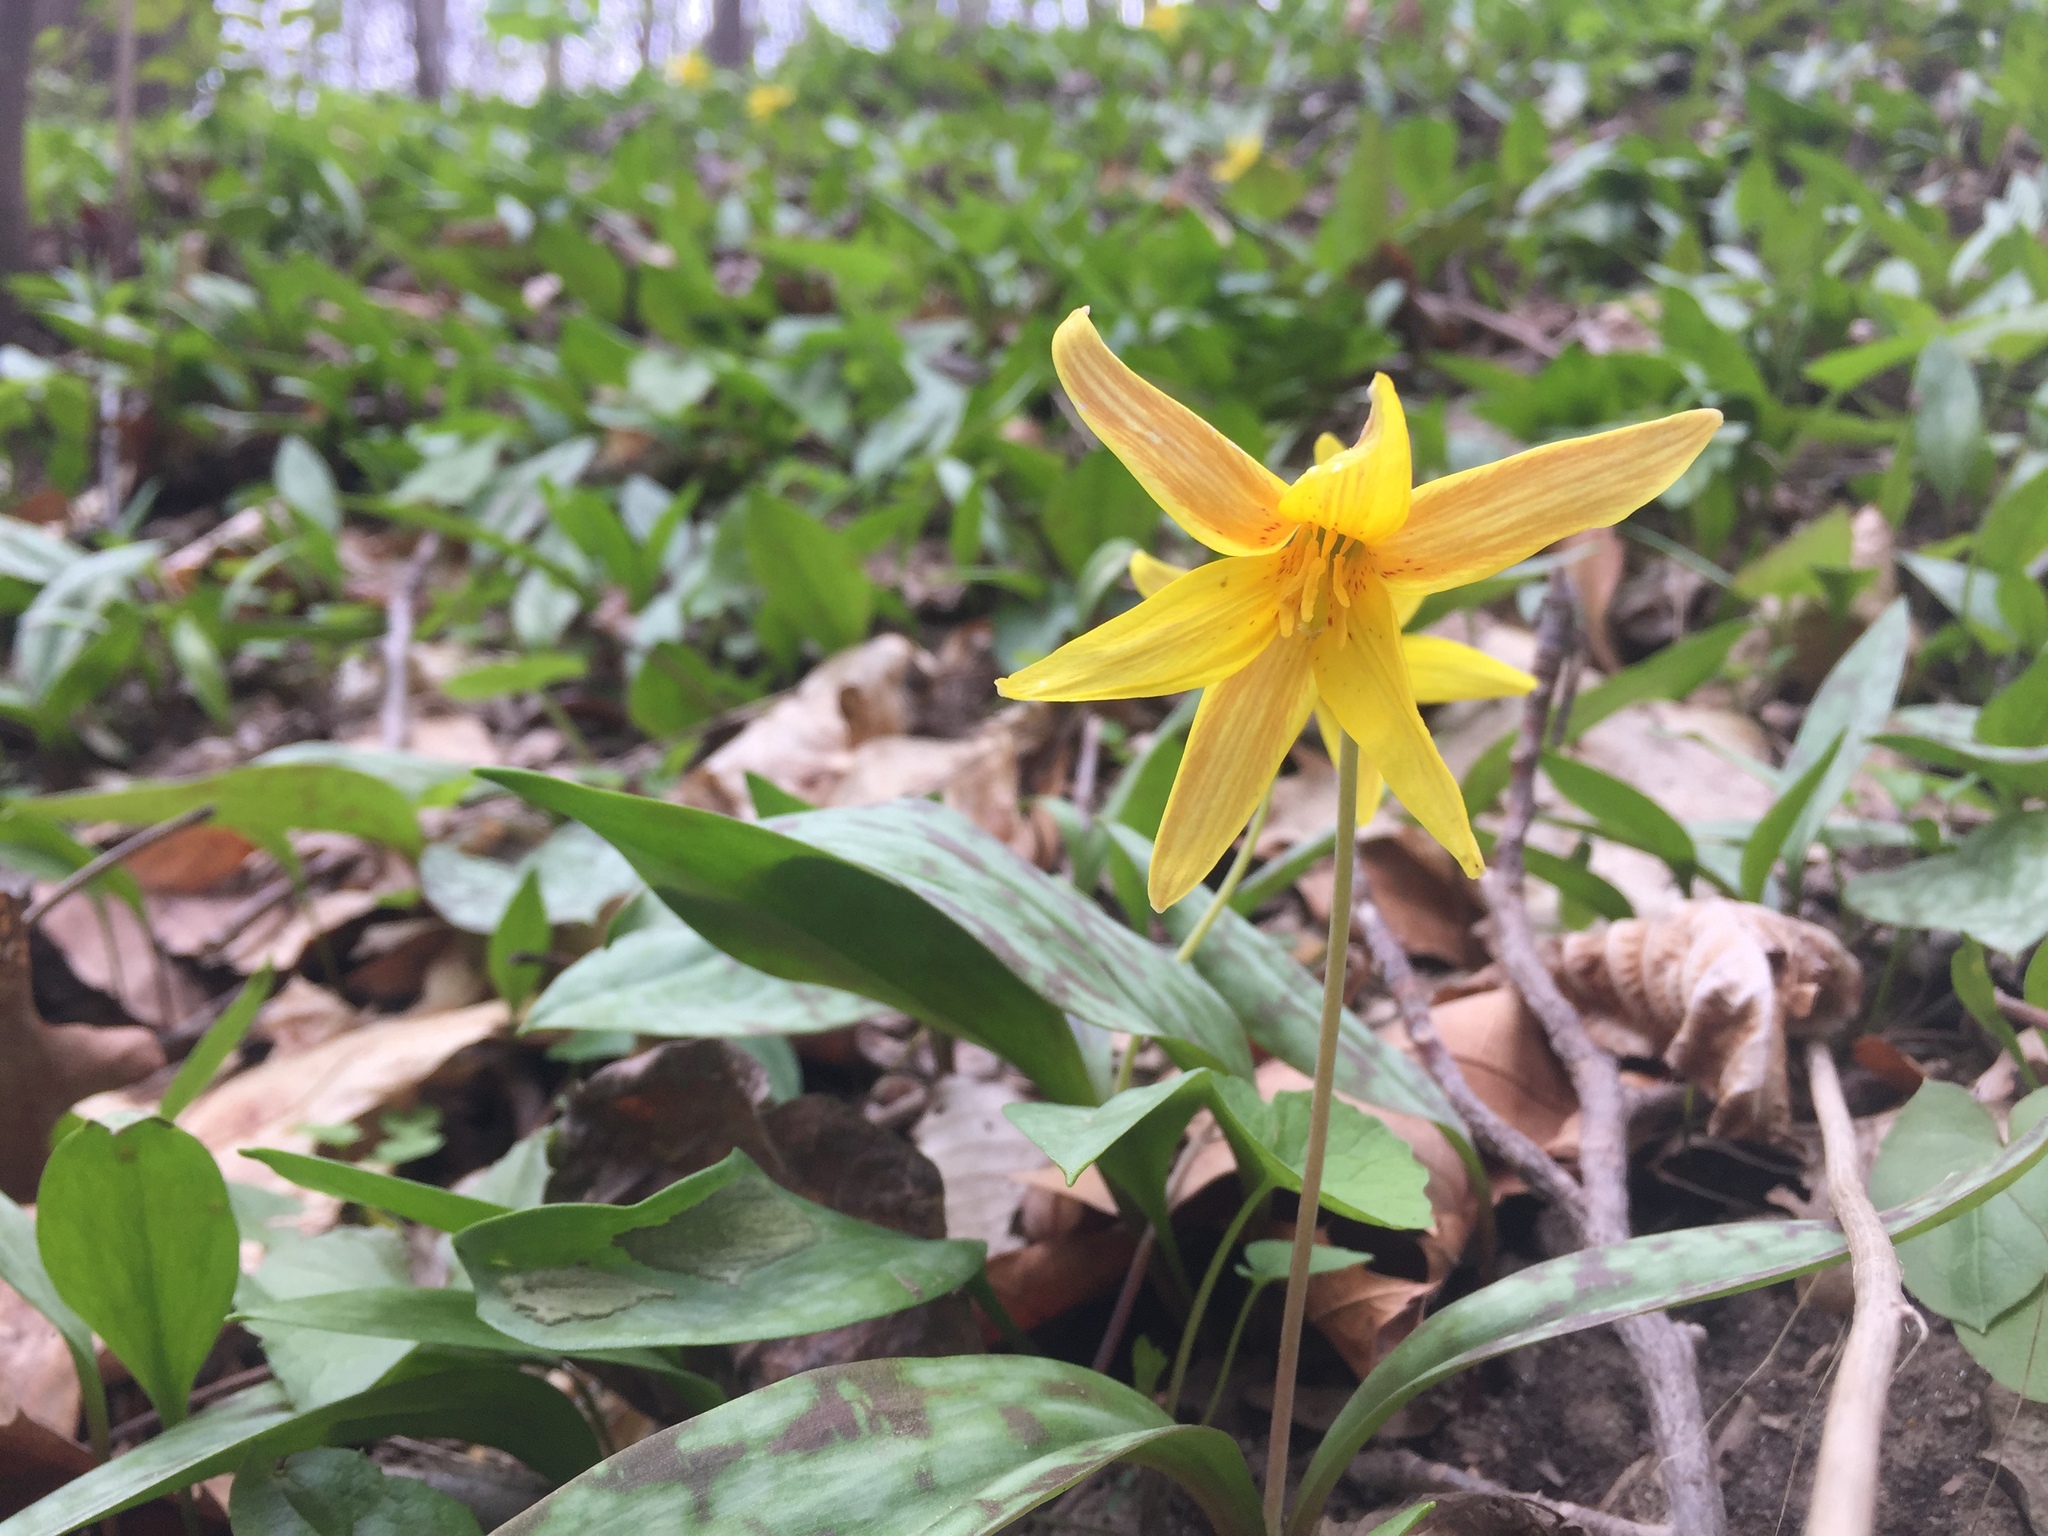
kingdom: Plantae
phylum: Tracheophyta
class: Liliopsida
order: Liliales
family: Liliaceae
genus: Erythronium
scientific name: Erythronium americanum
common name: Yellow adder's-tongue
